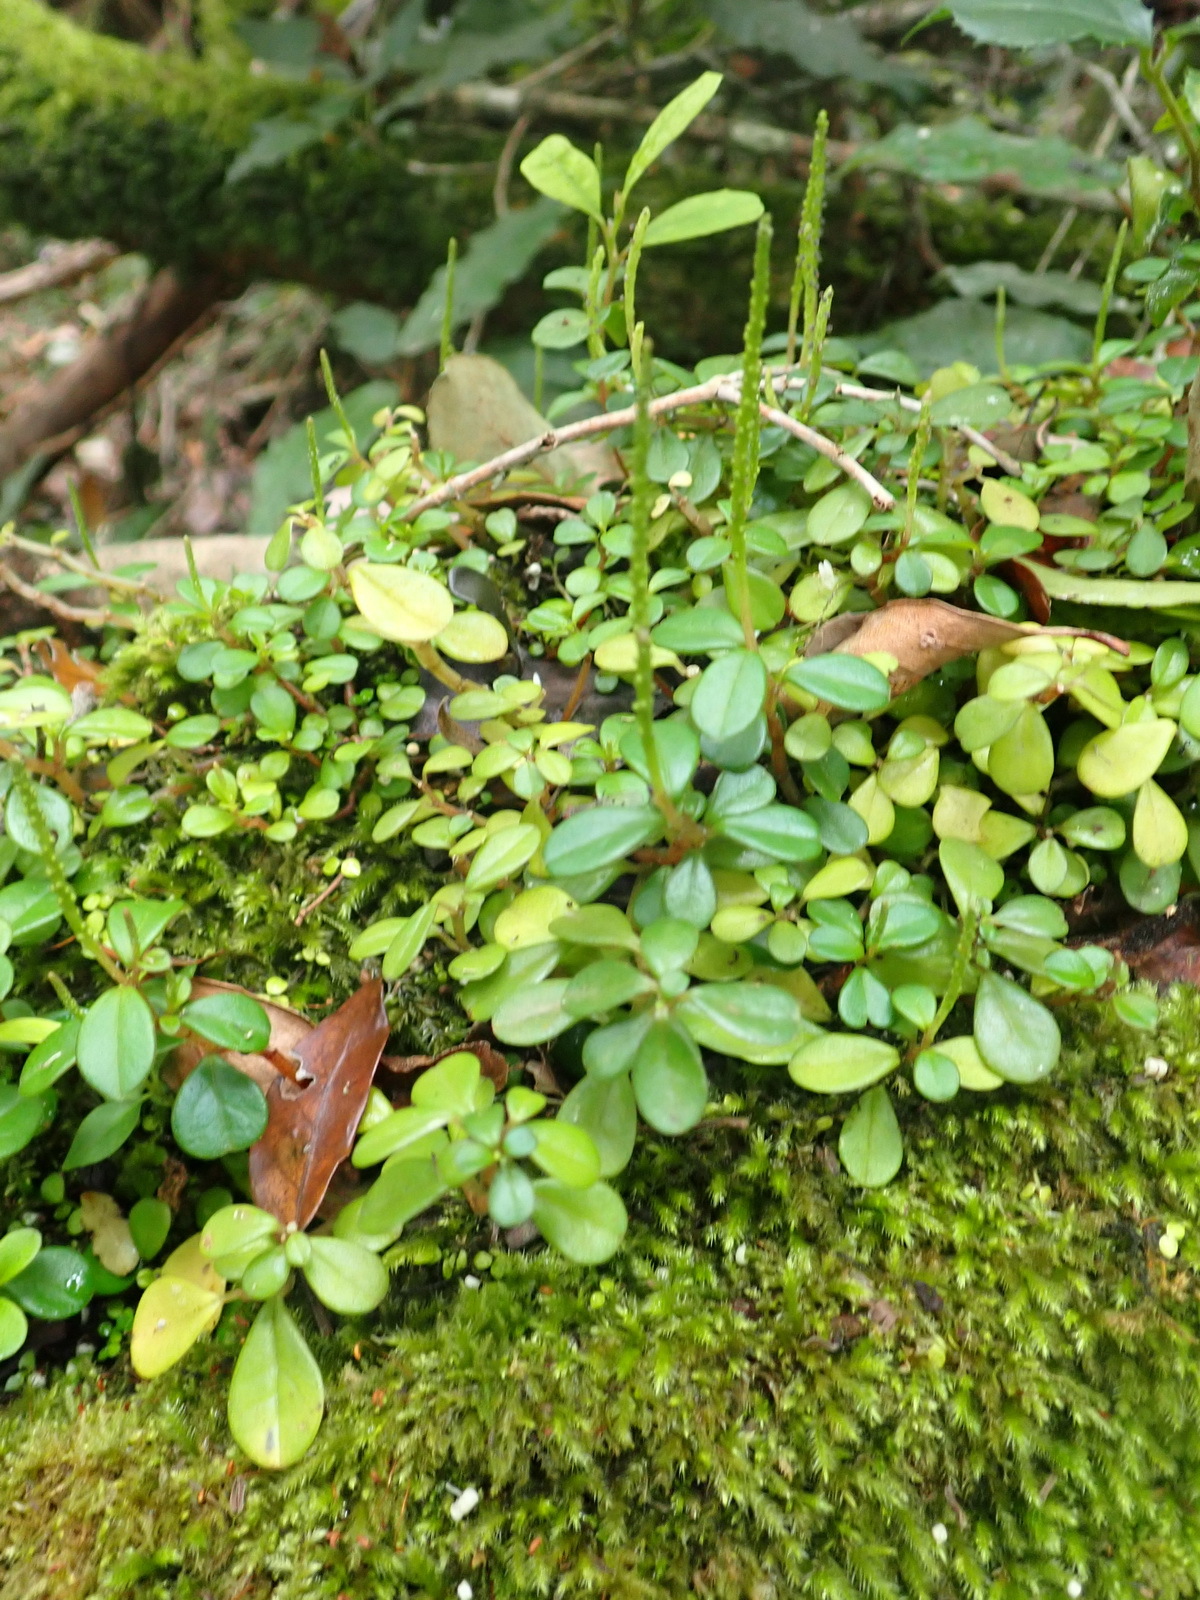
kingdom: Plantae
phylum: Tracheophyta
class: Magnoliopsida
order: Piperales
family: Piperaceae
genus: Peperomia
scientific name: Peperomia retusa
